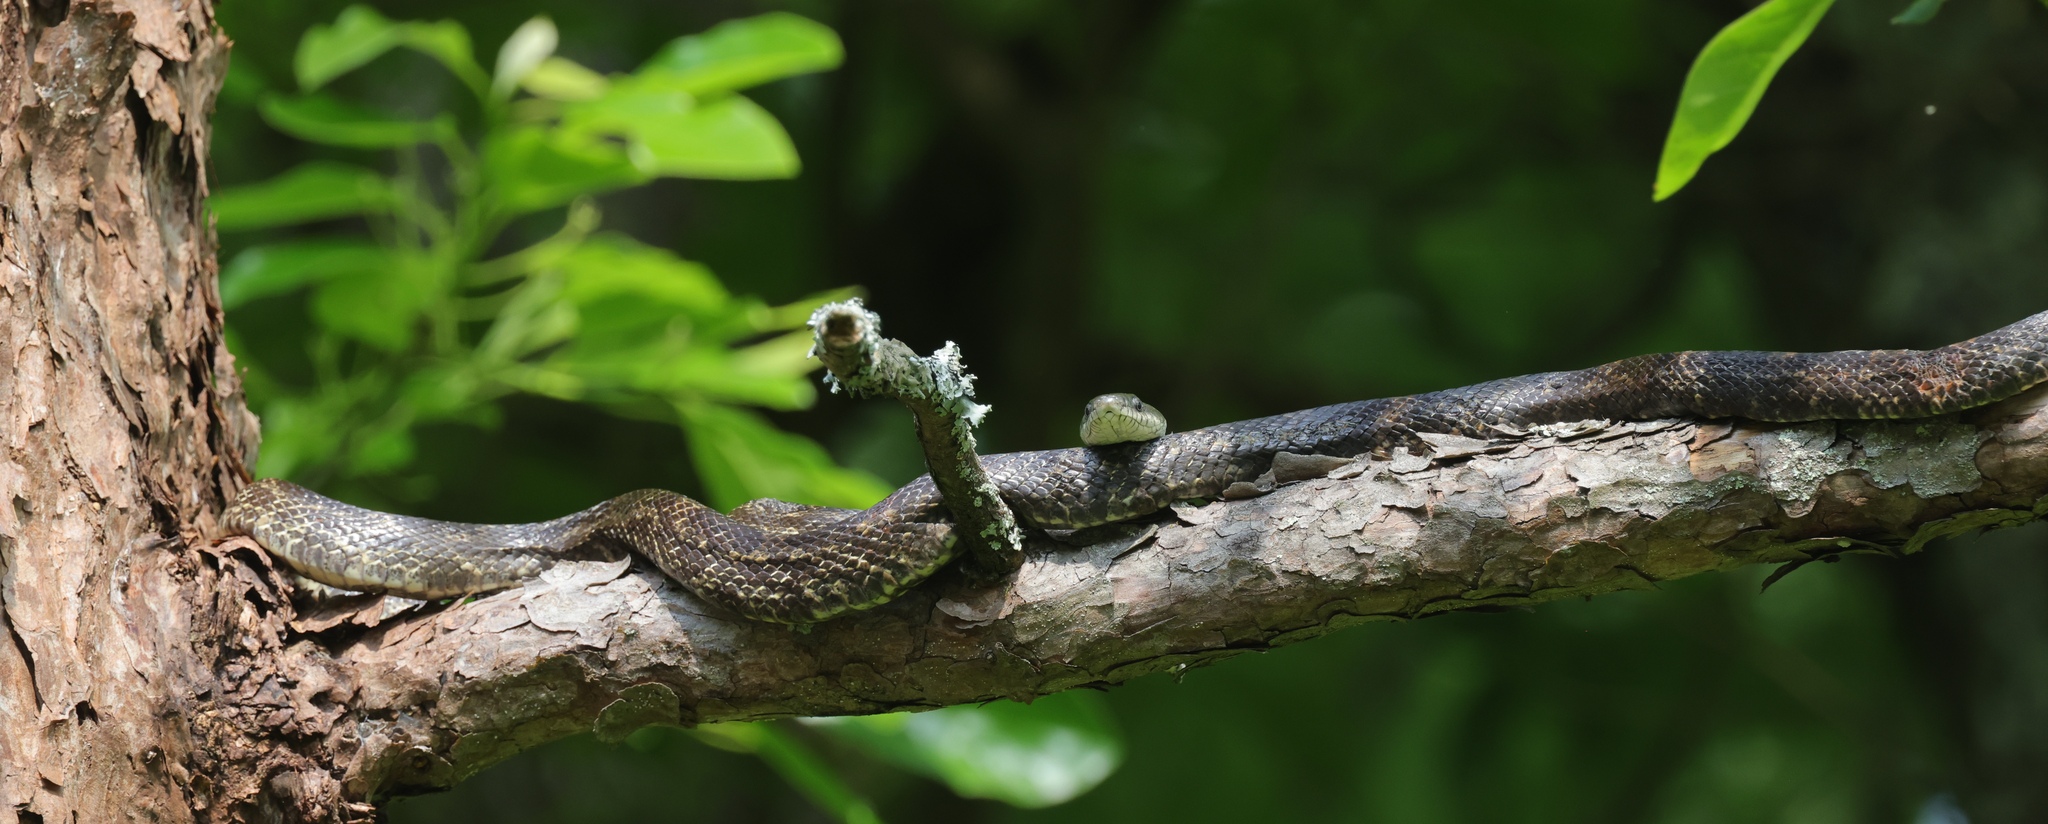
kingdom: Animalia
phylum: Chordata
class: Squamata
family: Colubridae
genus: Pantherophis
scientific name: Pantherophis spiloides
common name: Gray rat snake
